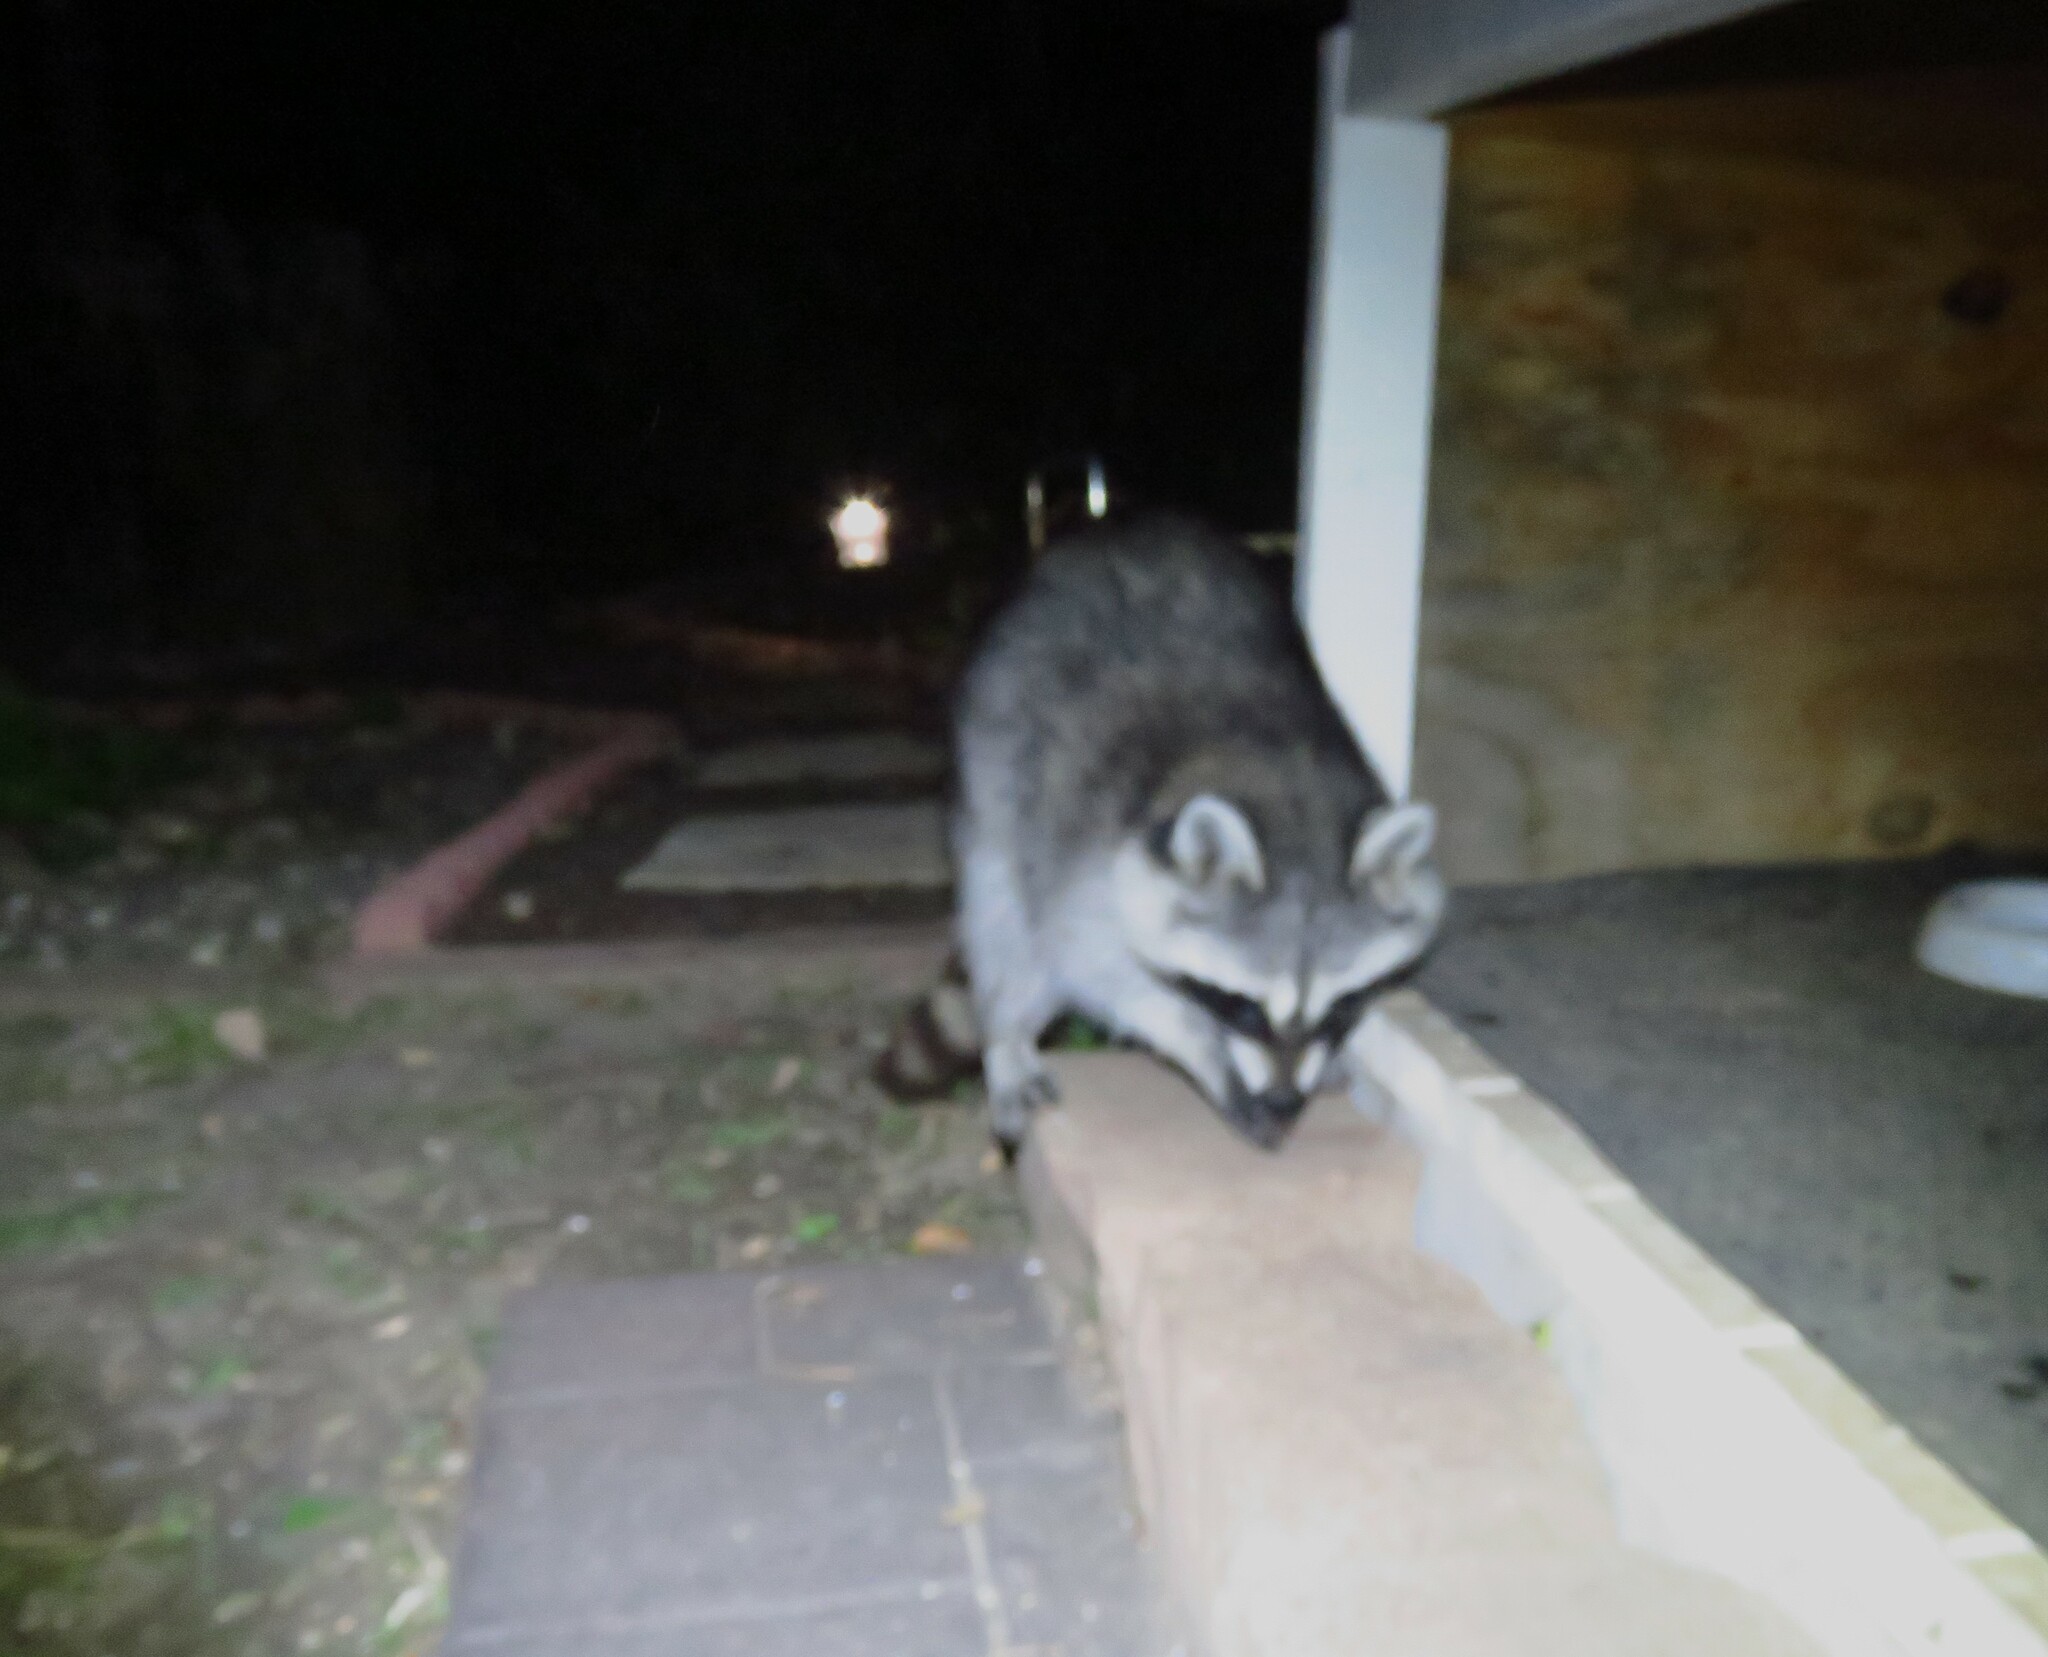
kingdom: Animalia
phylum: Chordata
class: Mammalia
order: Carnivora
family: Procyonidae
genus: Procyon
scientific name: Procyon lotor
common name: Raccoon
